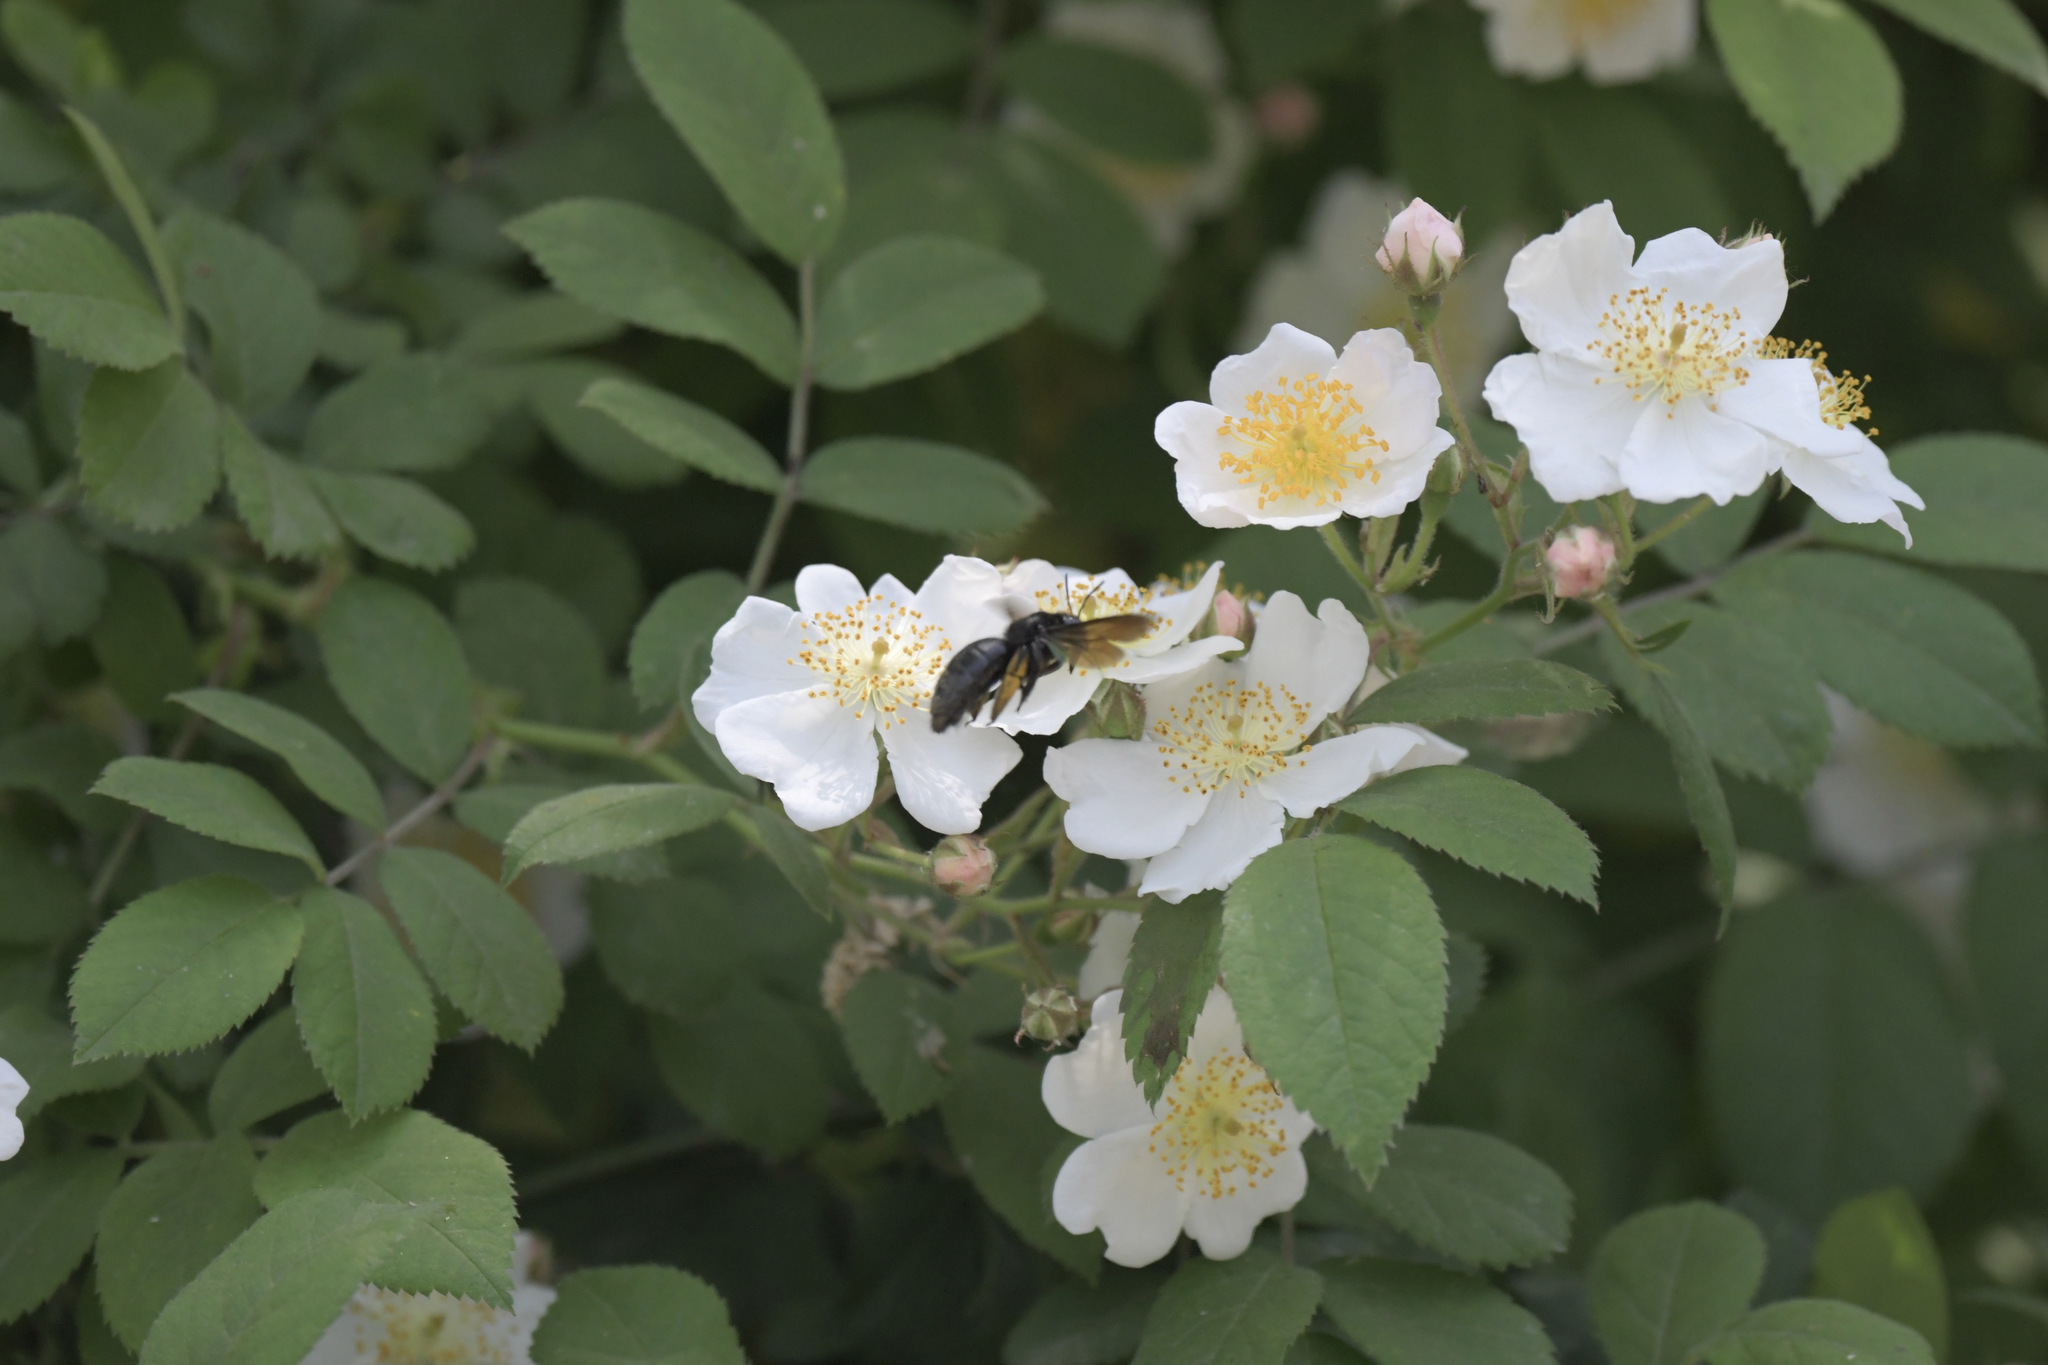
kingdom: Animalia
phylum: Arthropoda
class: Insecta
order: Hymenoptera
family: Apidae
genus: Xylocopa
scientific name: Xylocopa tranquebarorum
